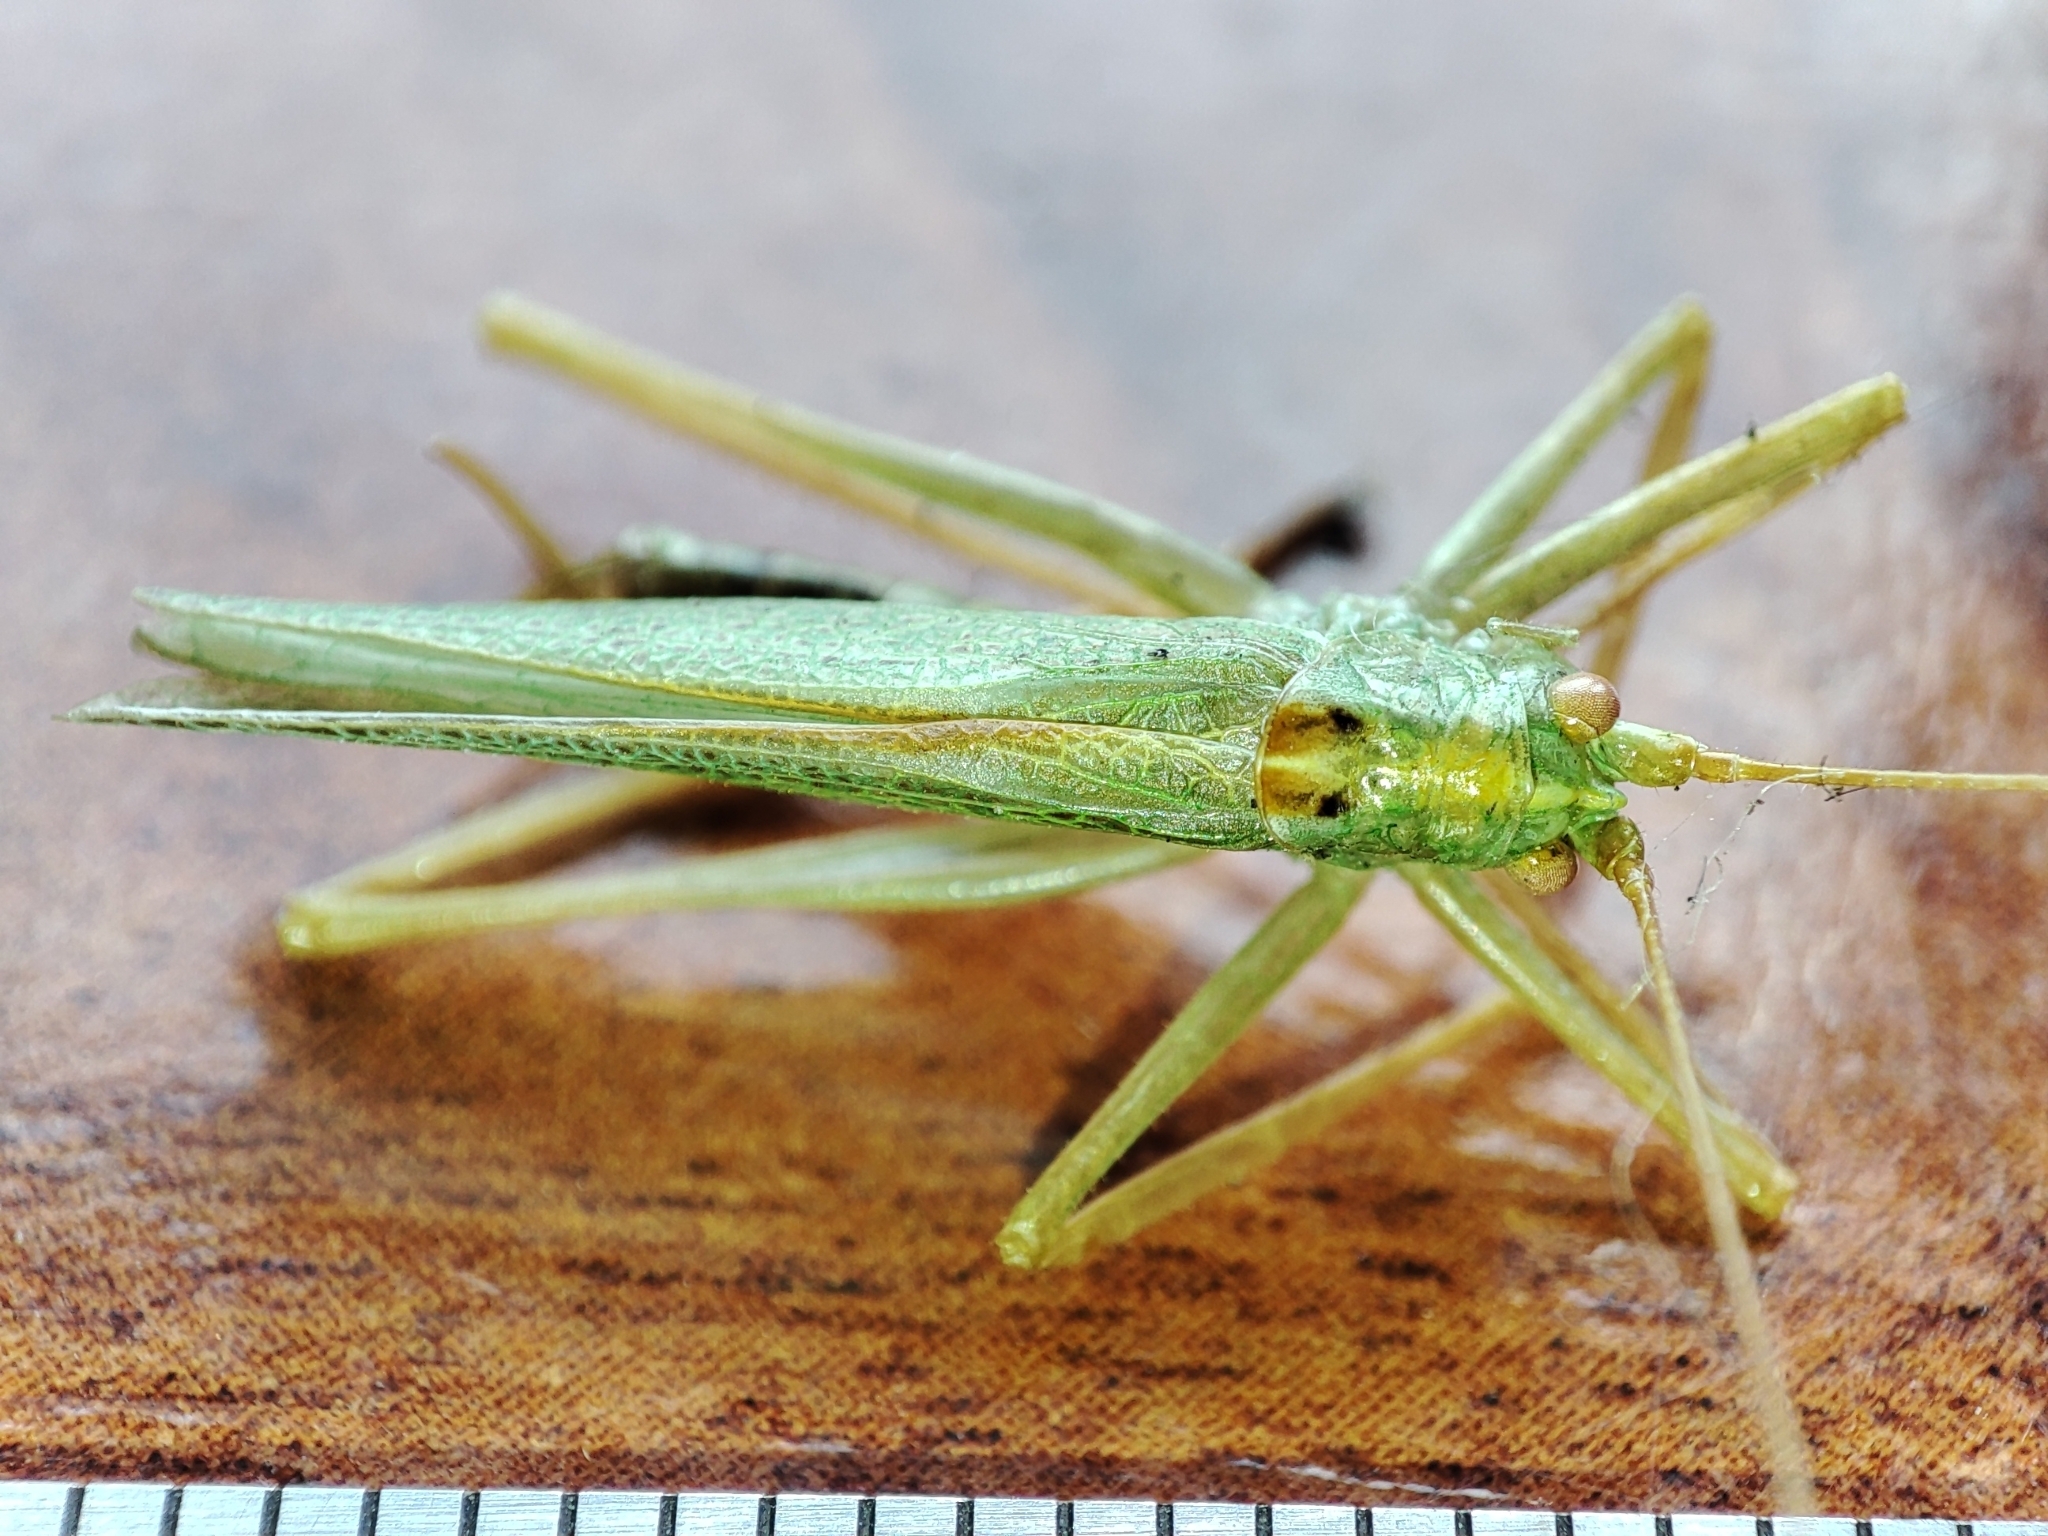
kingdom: Animalia
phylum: Arthropoda
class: Insecta
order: Orthoptera
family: Tettigoniidae
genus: Meconema
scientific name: Meconema thalassinum
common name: Oak bush-cricket
